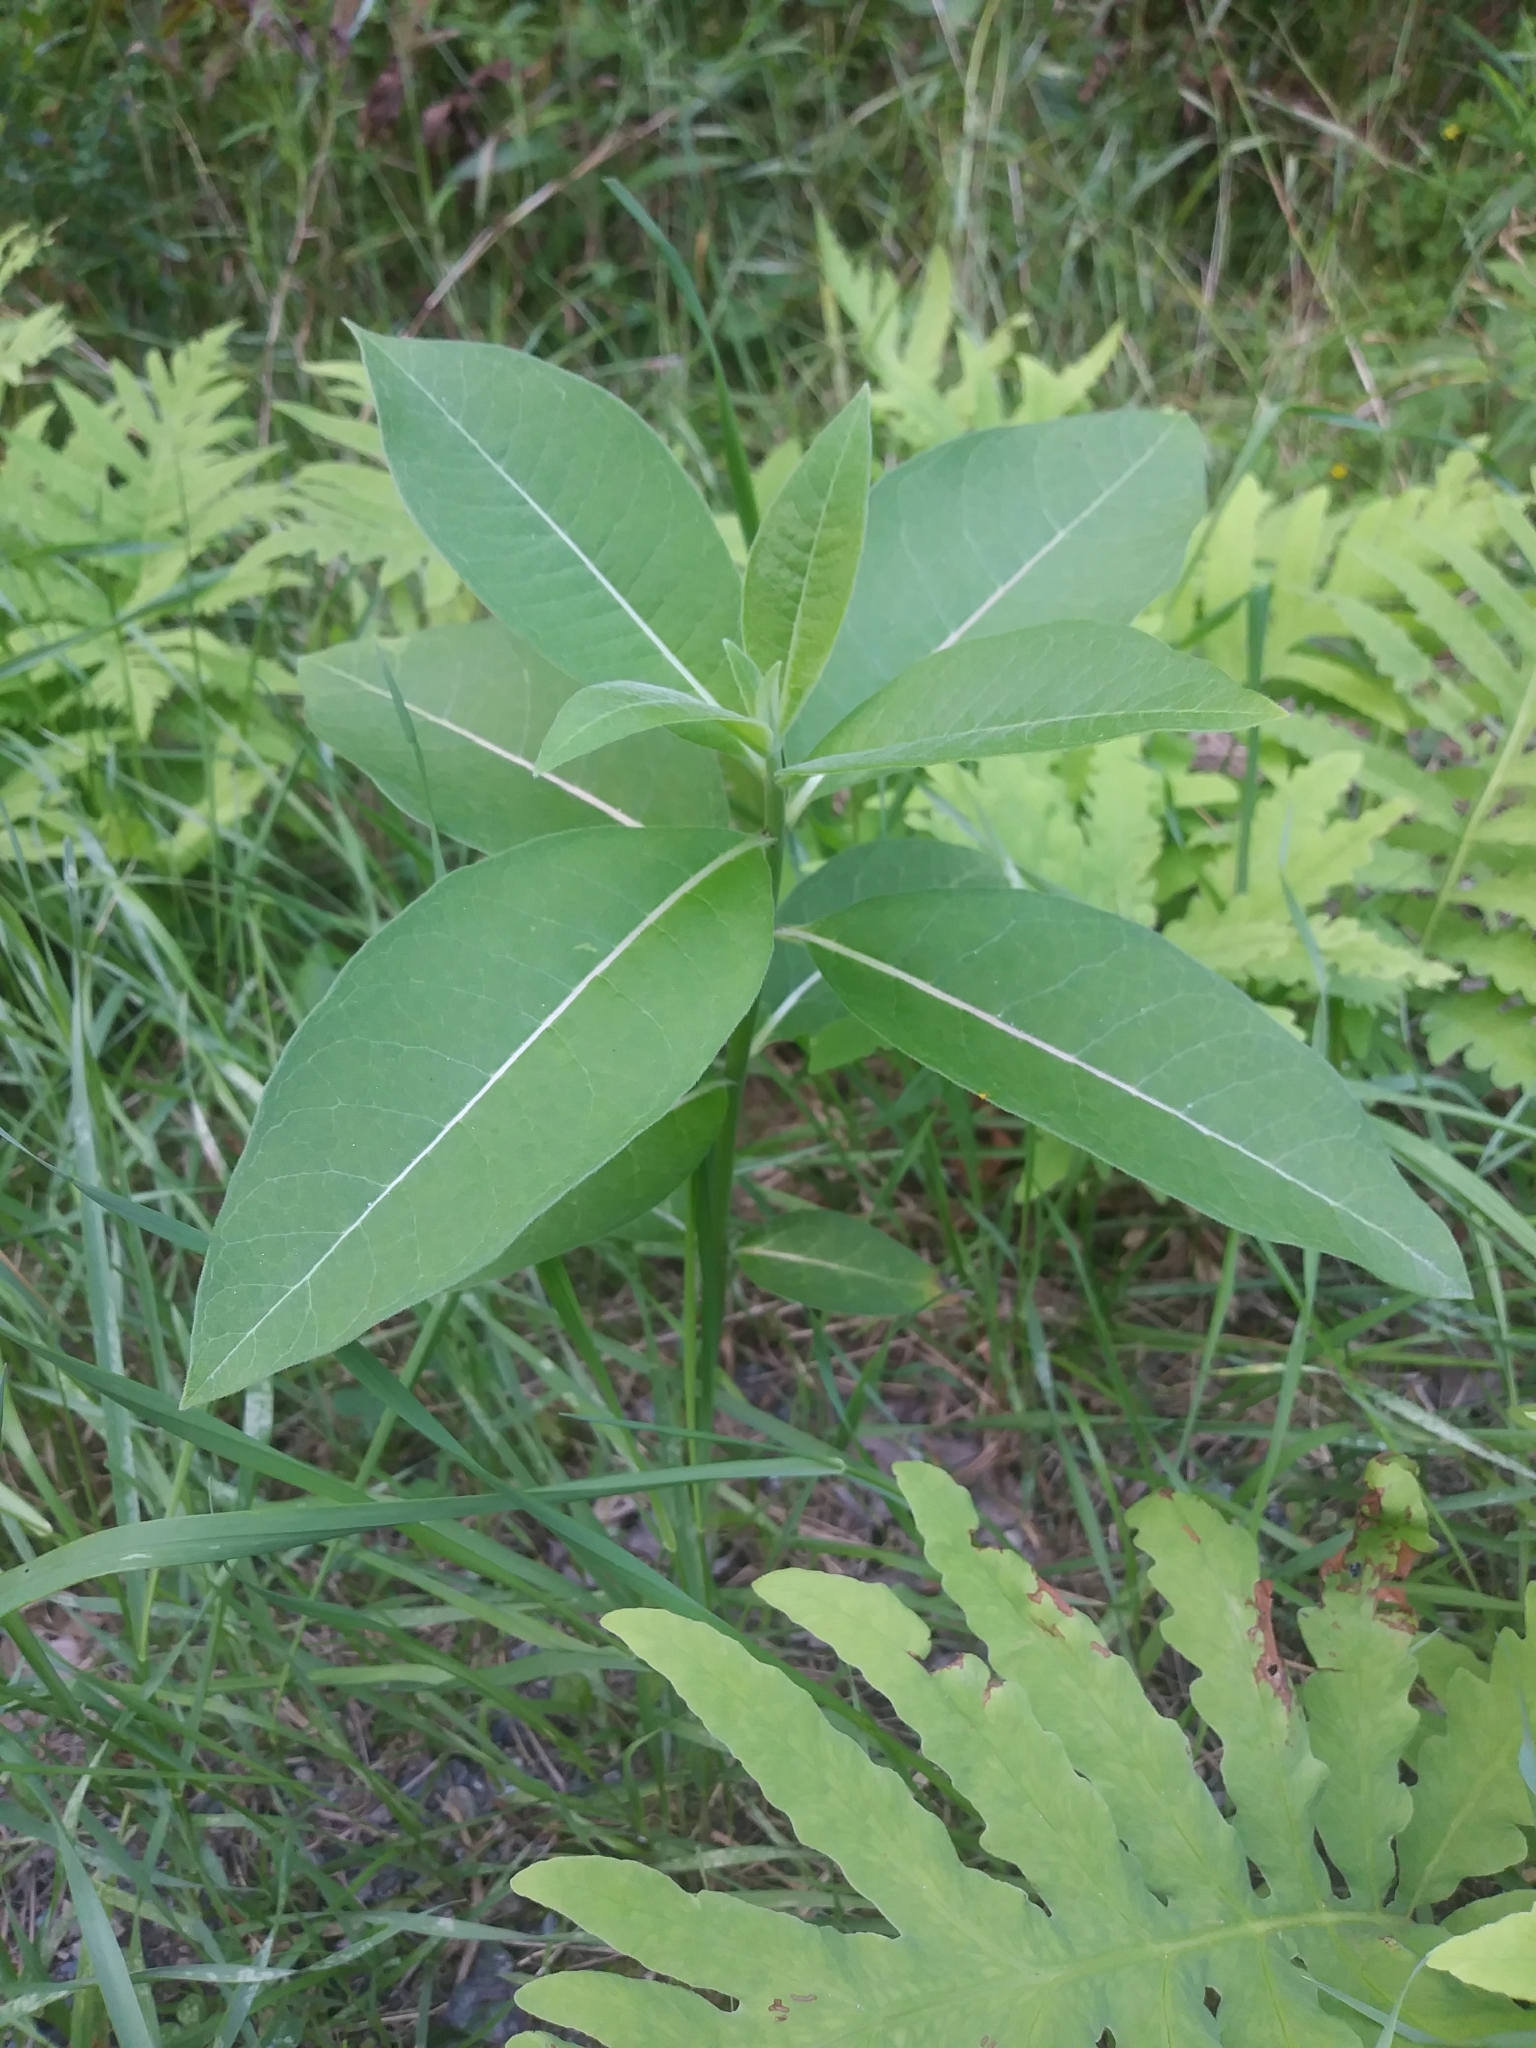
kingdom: Plantae
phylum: Tracheophyta
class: Magnoliopsida
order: Gentianales
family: Apocynaceae
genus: Asclepias
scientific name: Asclepias syriaca
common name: Common milkweed
